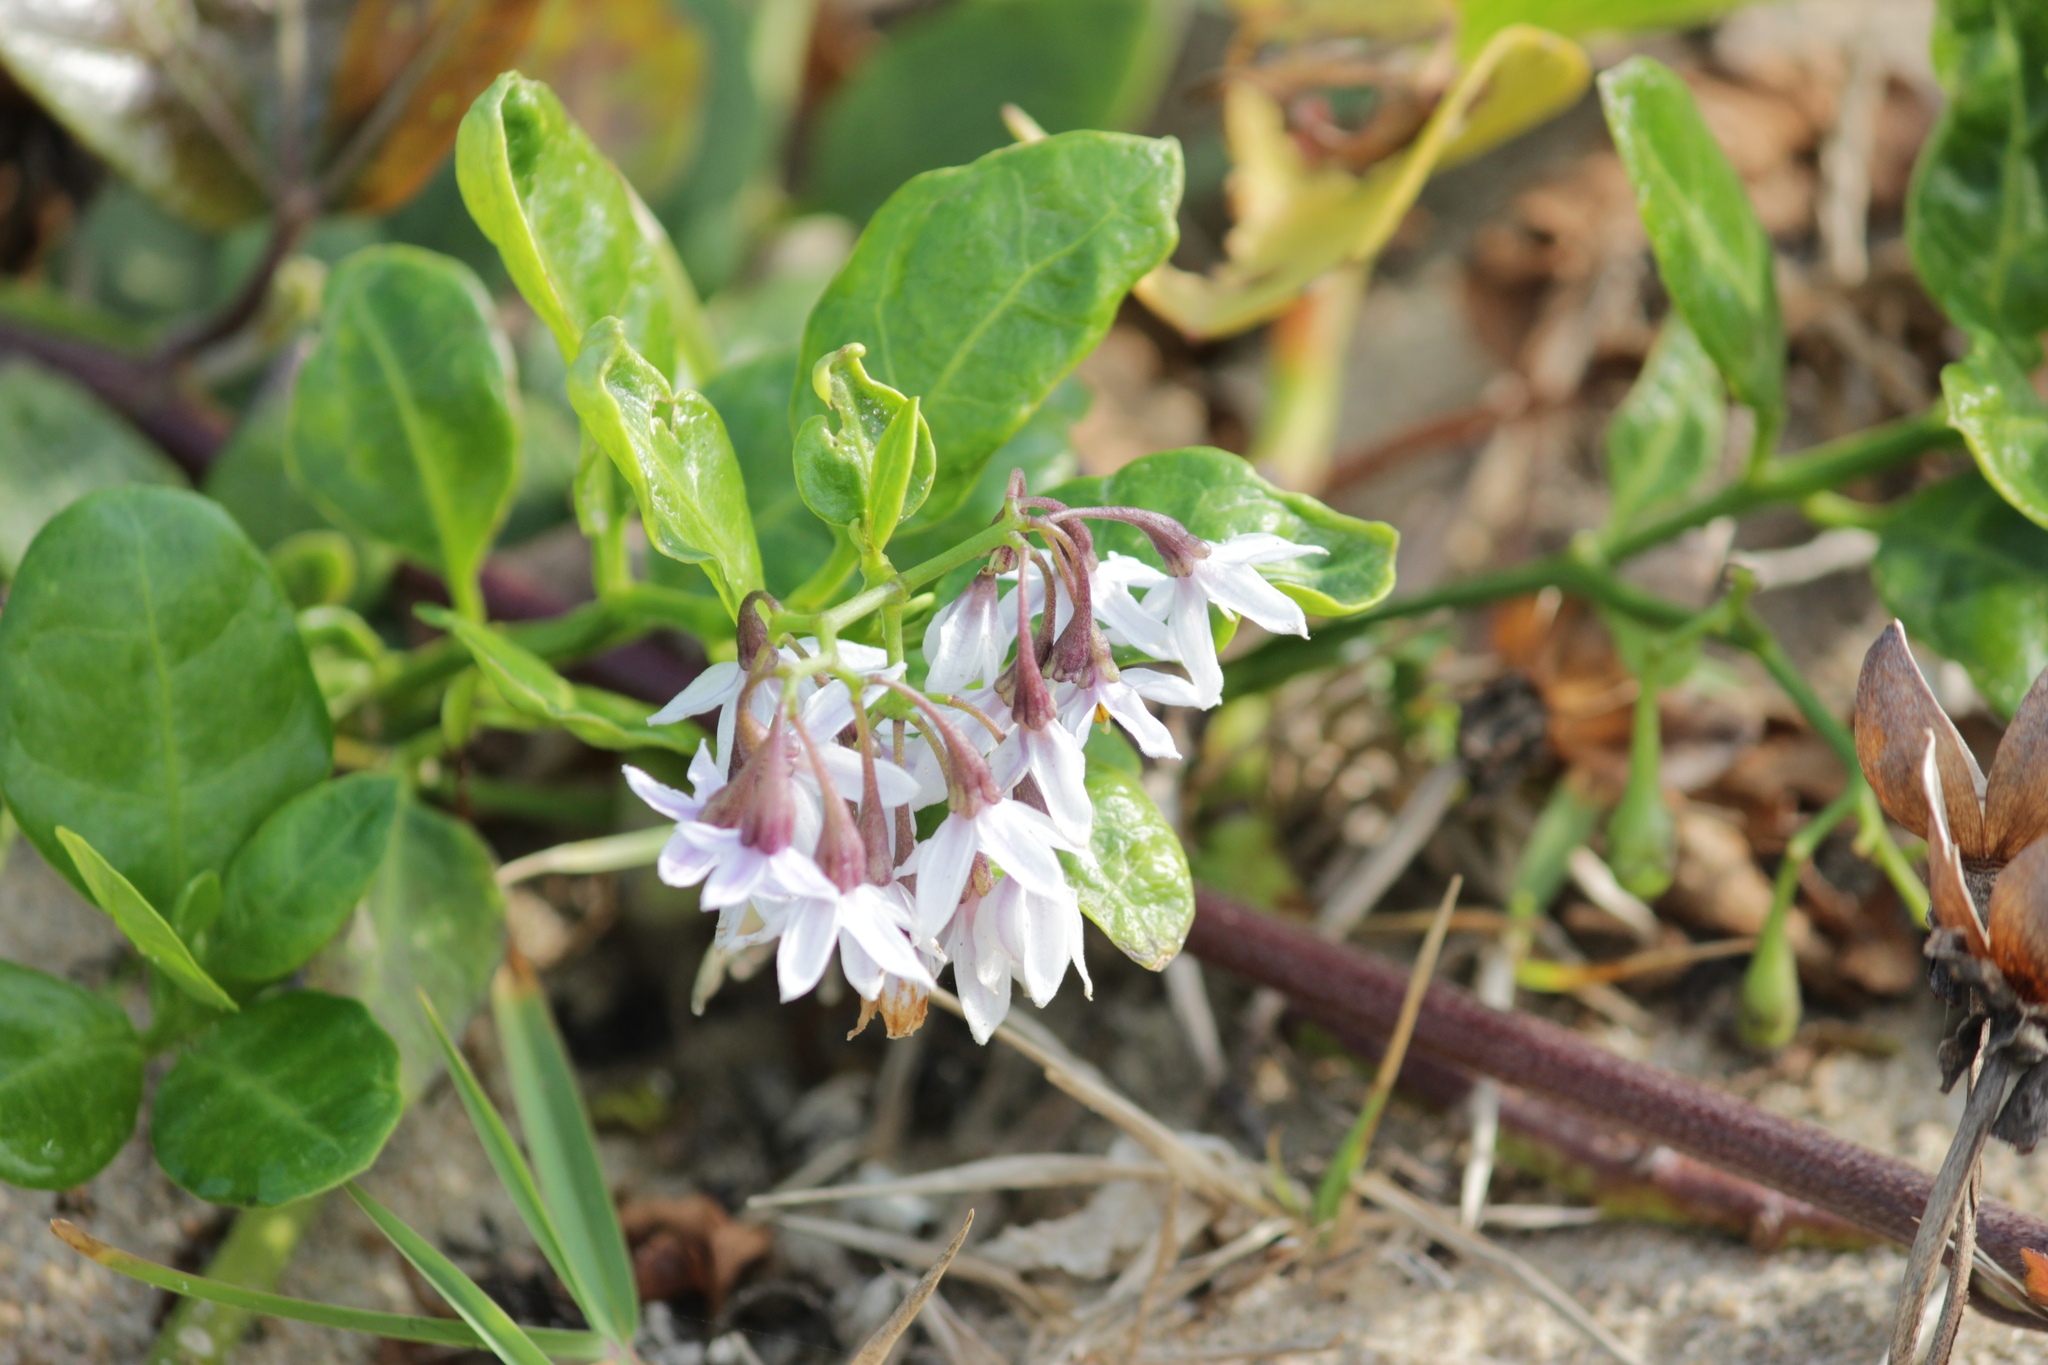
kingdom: Plantae
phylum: Tracheophyta
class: Magnoliopsida
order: Solanales
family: Solanaceae
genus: Solanum
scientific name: Solanum africanum
